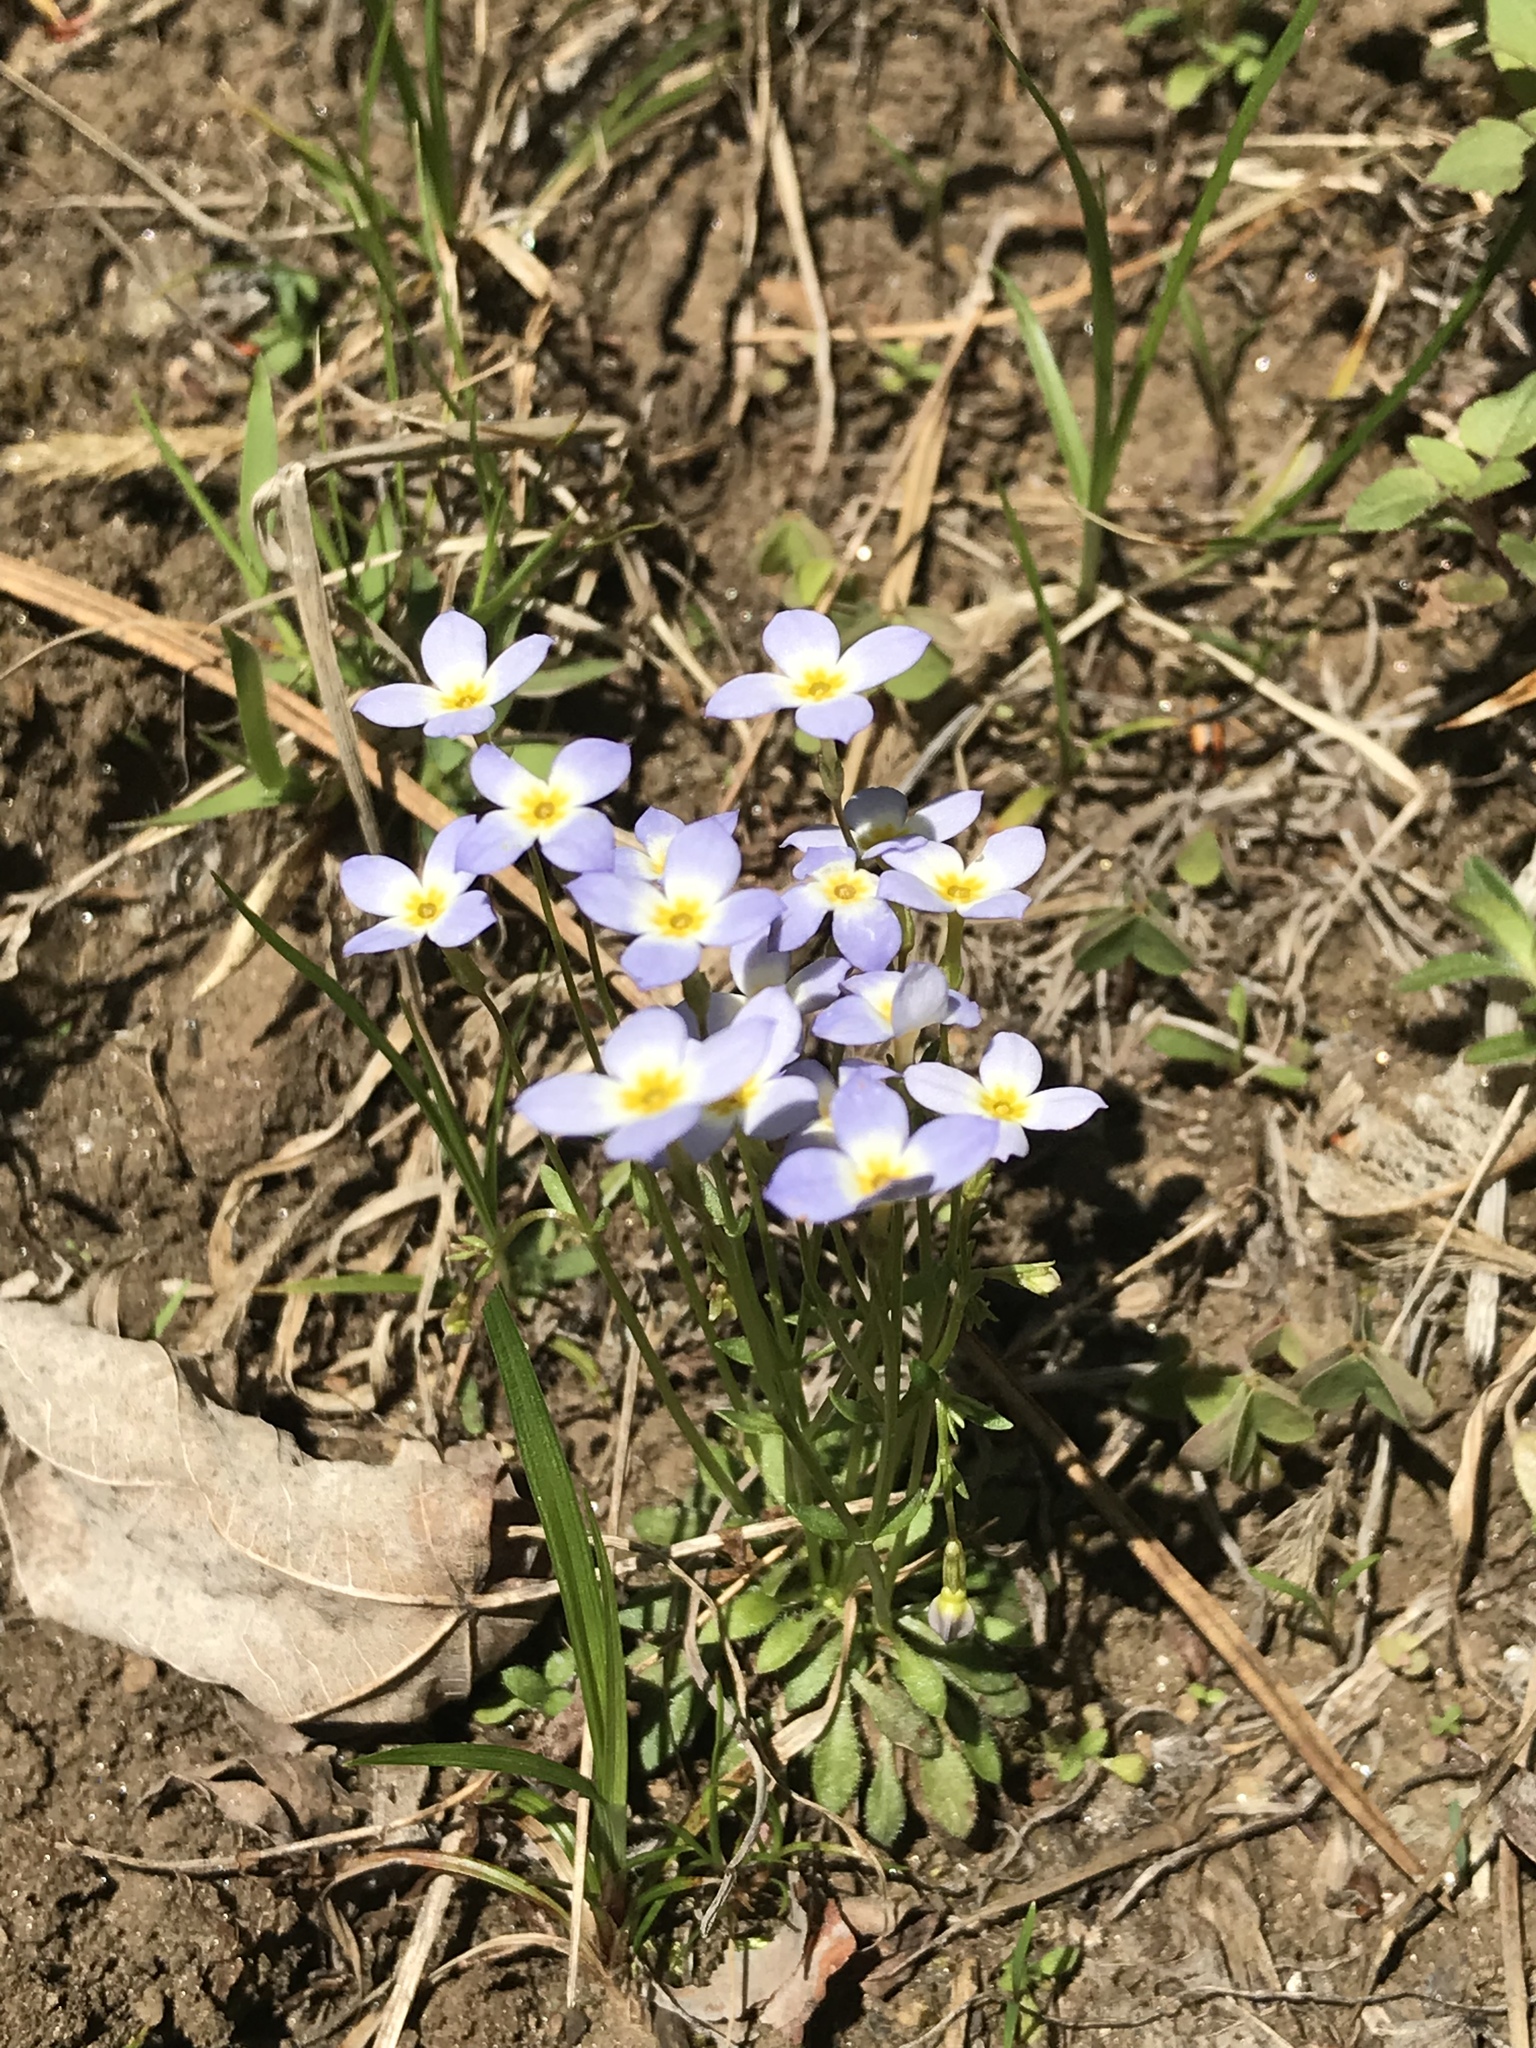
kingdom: Plantae
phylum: Tracheophyta
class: Magnoliopsida
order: Gentianales
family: Rubiaceae
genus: Houstonia
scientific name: Houstonia caerulea
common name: Bluets
